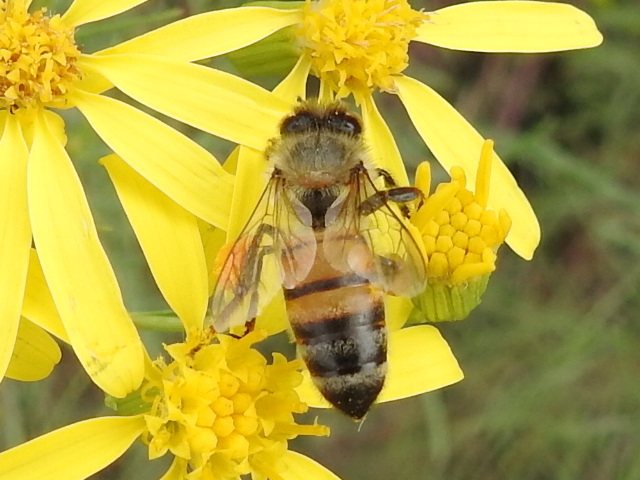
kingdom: Animalia
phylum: Arthropoda
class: Insecta
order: Hymenoptera
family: Apidae
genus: Apis
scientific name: Apis mellifera
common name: Honey bee
